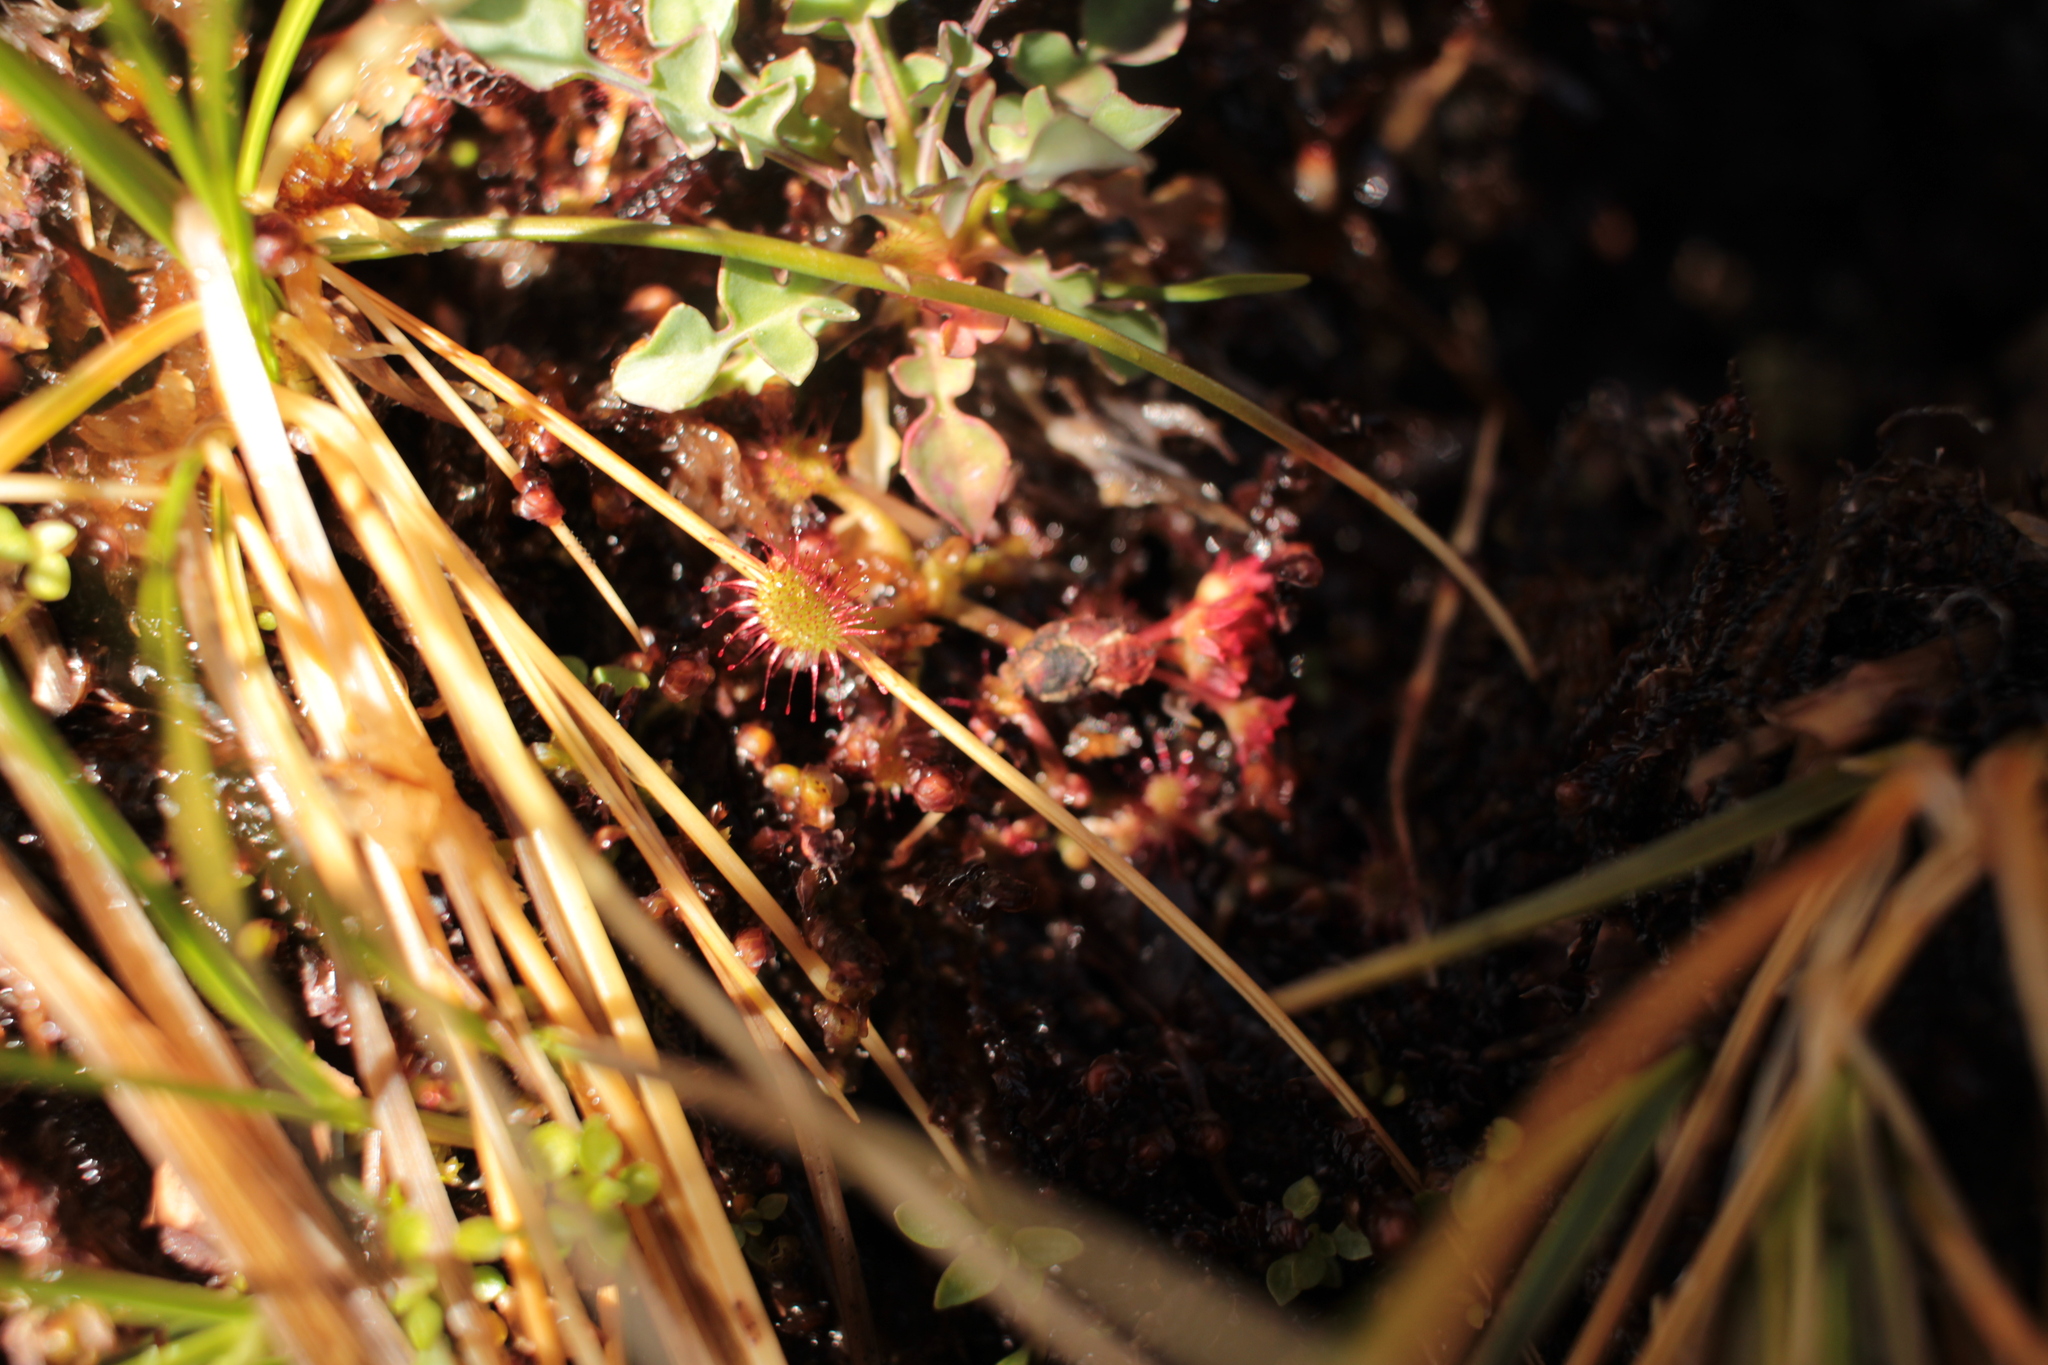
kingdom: Plantae
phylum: Tracheophyta
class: Magnoliopsida
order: Caryophyllales
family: Droseraceae
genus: Drosera
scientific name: Drosera rotundifolia
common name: Round-leaved sundew
